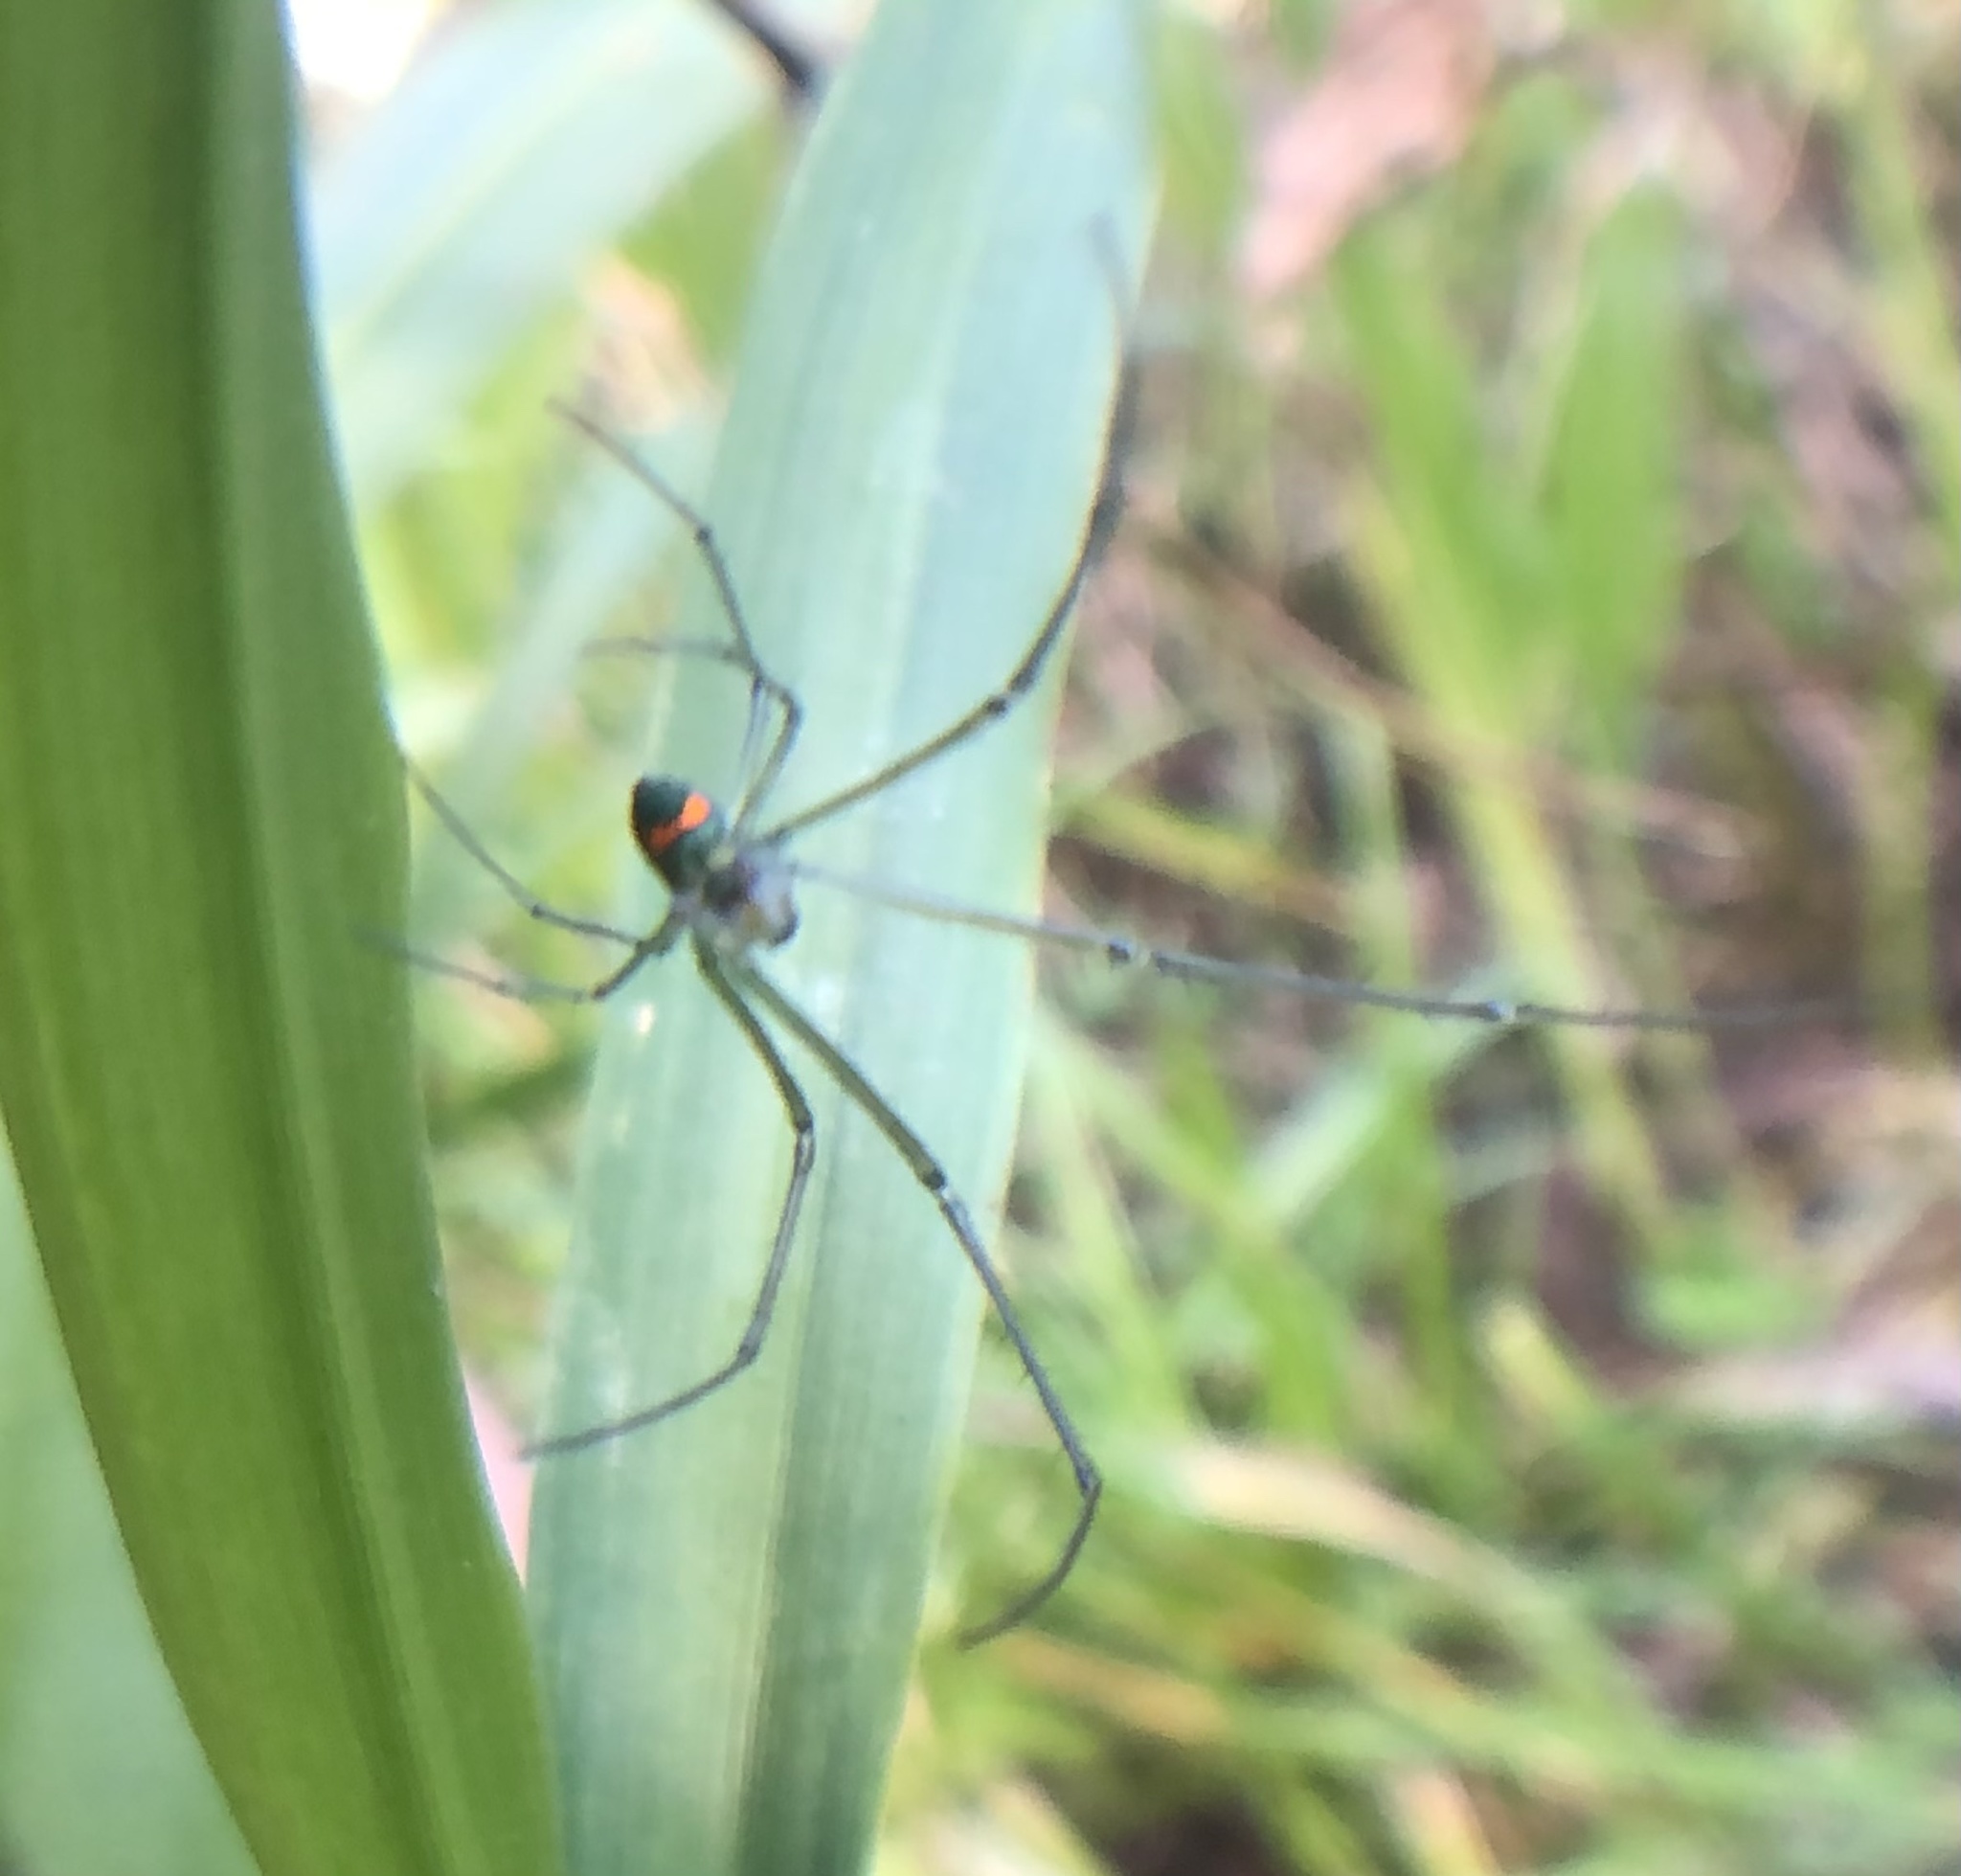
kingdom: Animalia
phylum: Arthropoda
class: Arachnida
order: Araneae
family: Tetragnathidae
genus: Leucauge
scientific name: Leucauge argyrobapta
